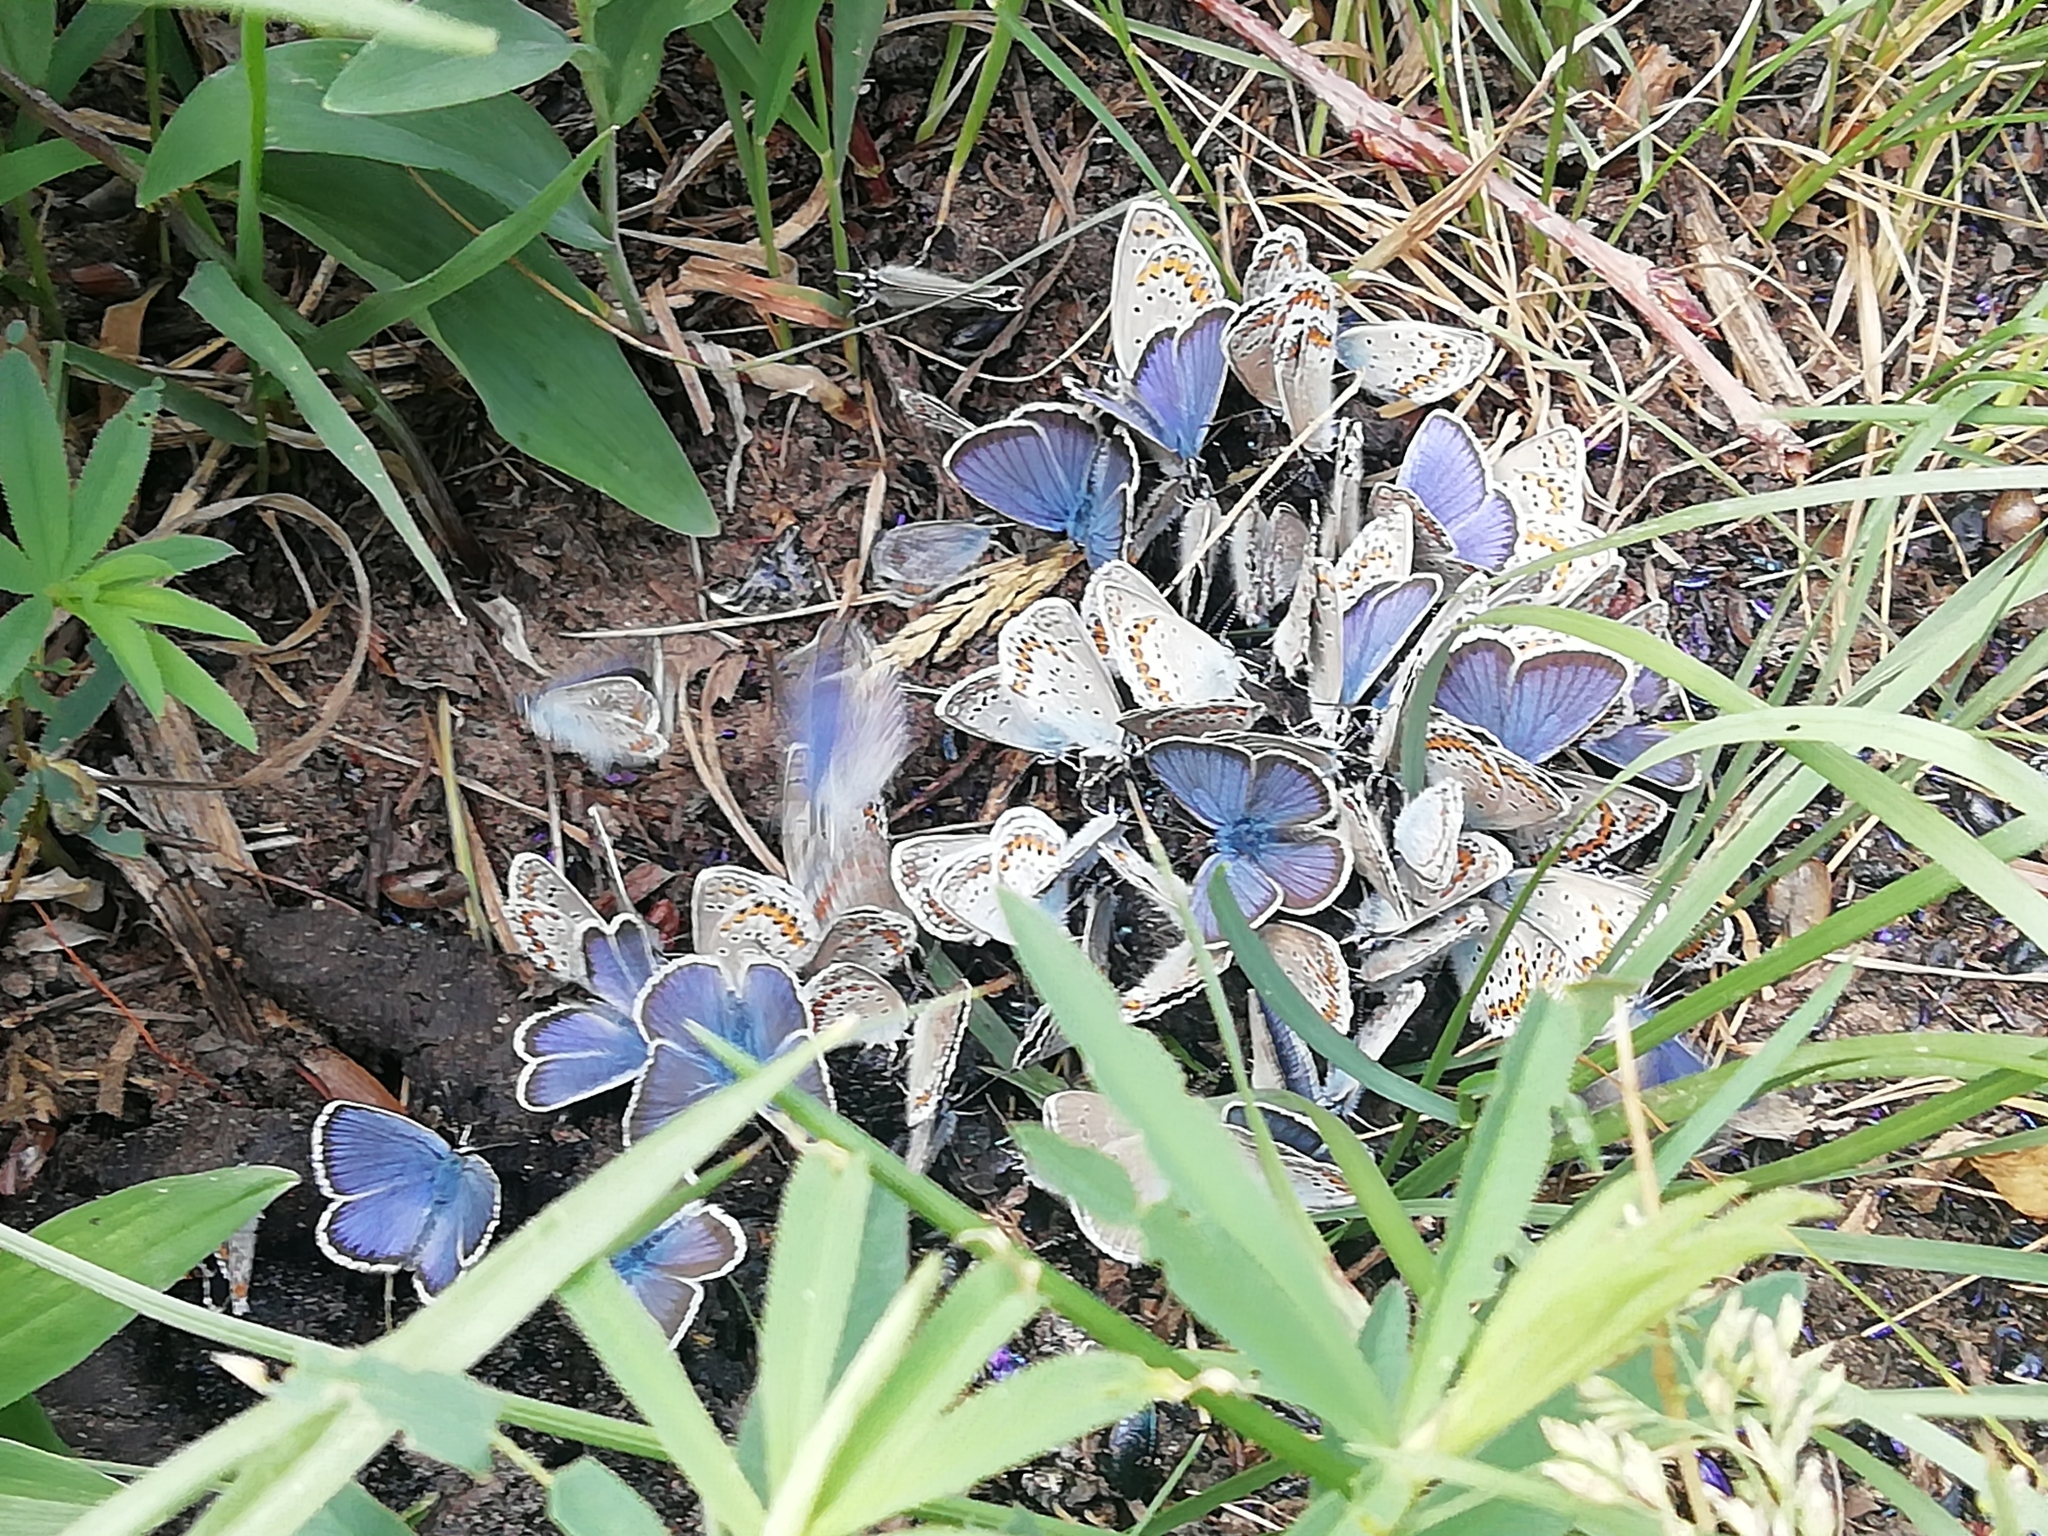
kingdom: Animalia
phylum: Arthropoda
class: Insecta
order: Lepidoptera
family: Lycaenidae
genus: Lycaeides
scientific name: Lycaeides idas
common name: Northern blue
